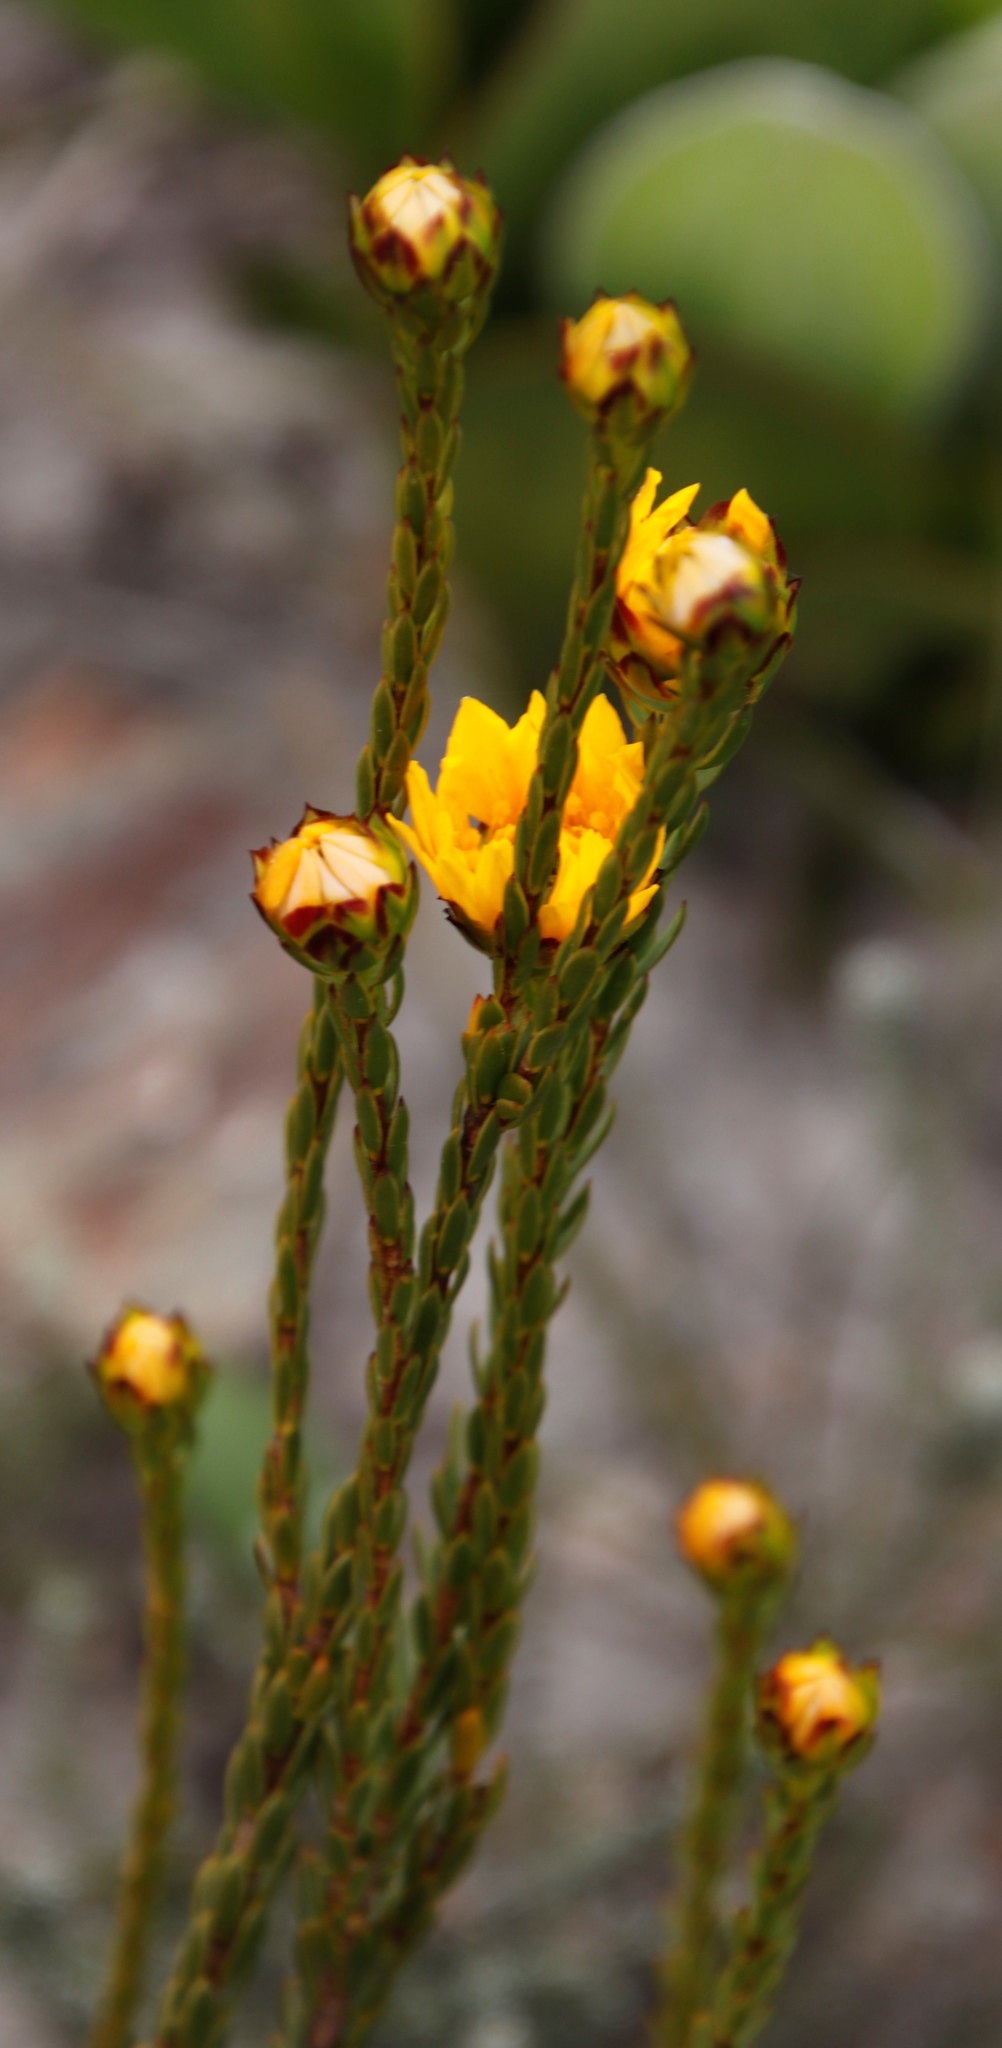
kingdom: Plantae
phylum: Tracheophyta
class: Magnoliopsida
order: Malvales
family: Thymelaeaceae
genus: Lachnaea
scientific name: Lachnaea aurea
